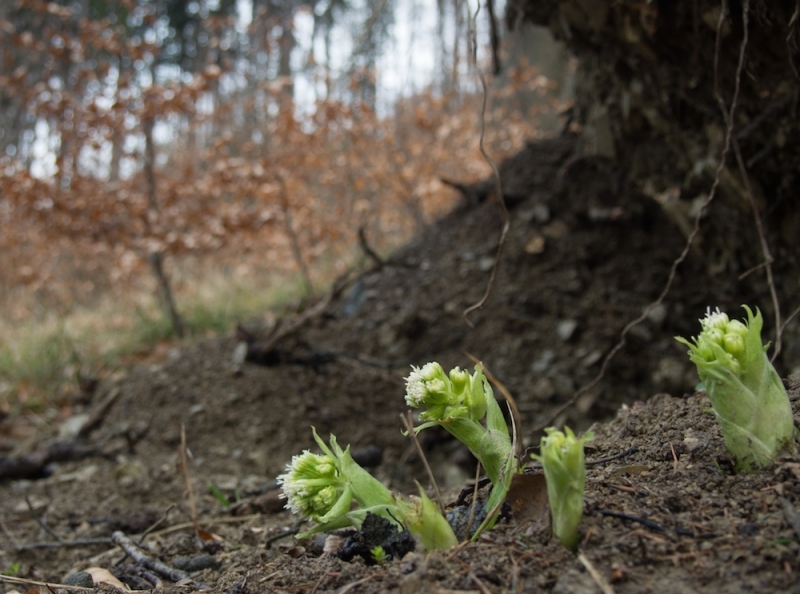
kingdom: Plantae
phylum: Tracheophyta
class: Magnoliopsida
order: Asterales
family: Asteraceae
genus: Petasites
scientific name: Petasites albus
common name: White butterbur
